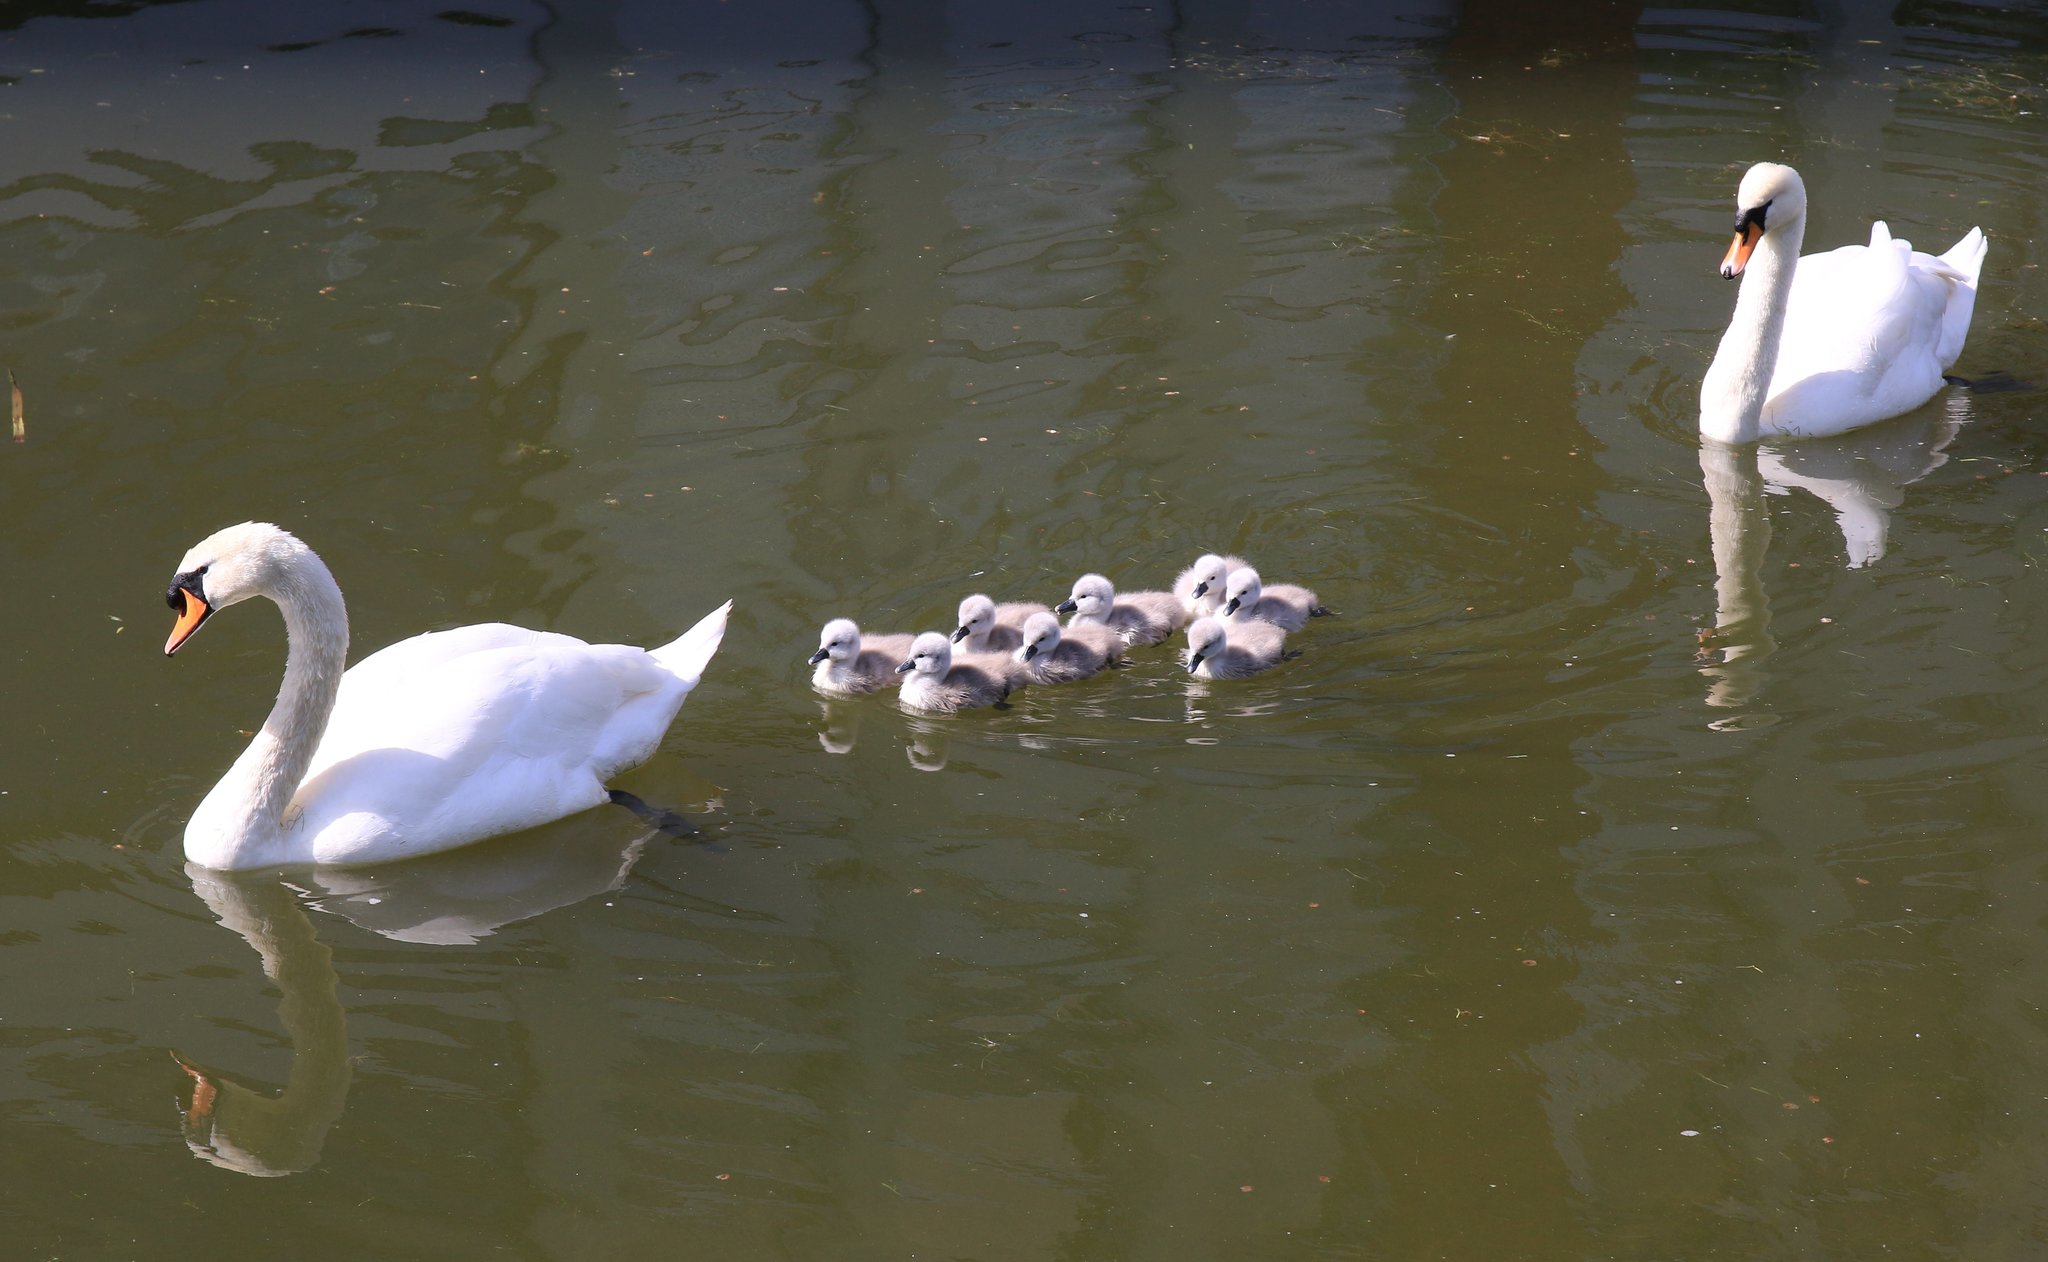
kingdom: Animalia
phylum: Chordata
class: Aves
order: Anseriformes
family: Anatidae
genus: Cygnus
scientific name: Cygnus olor
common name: Mute swan
